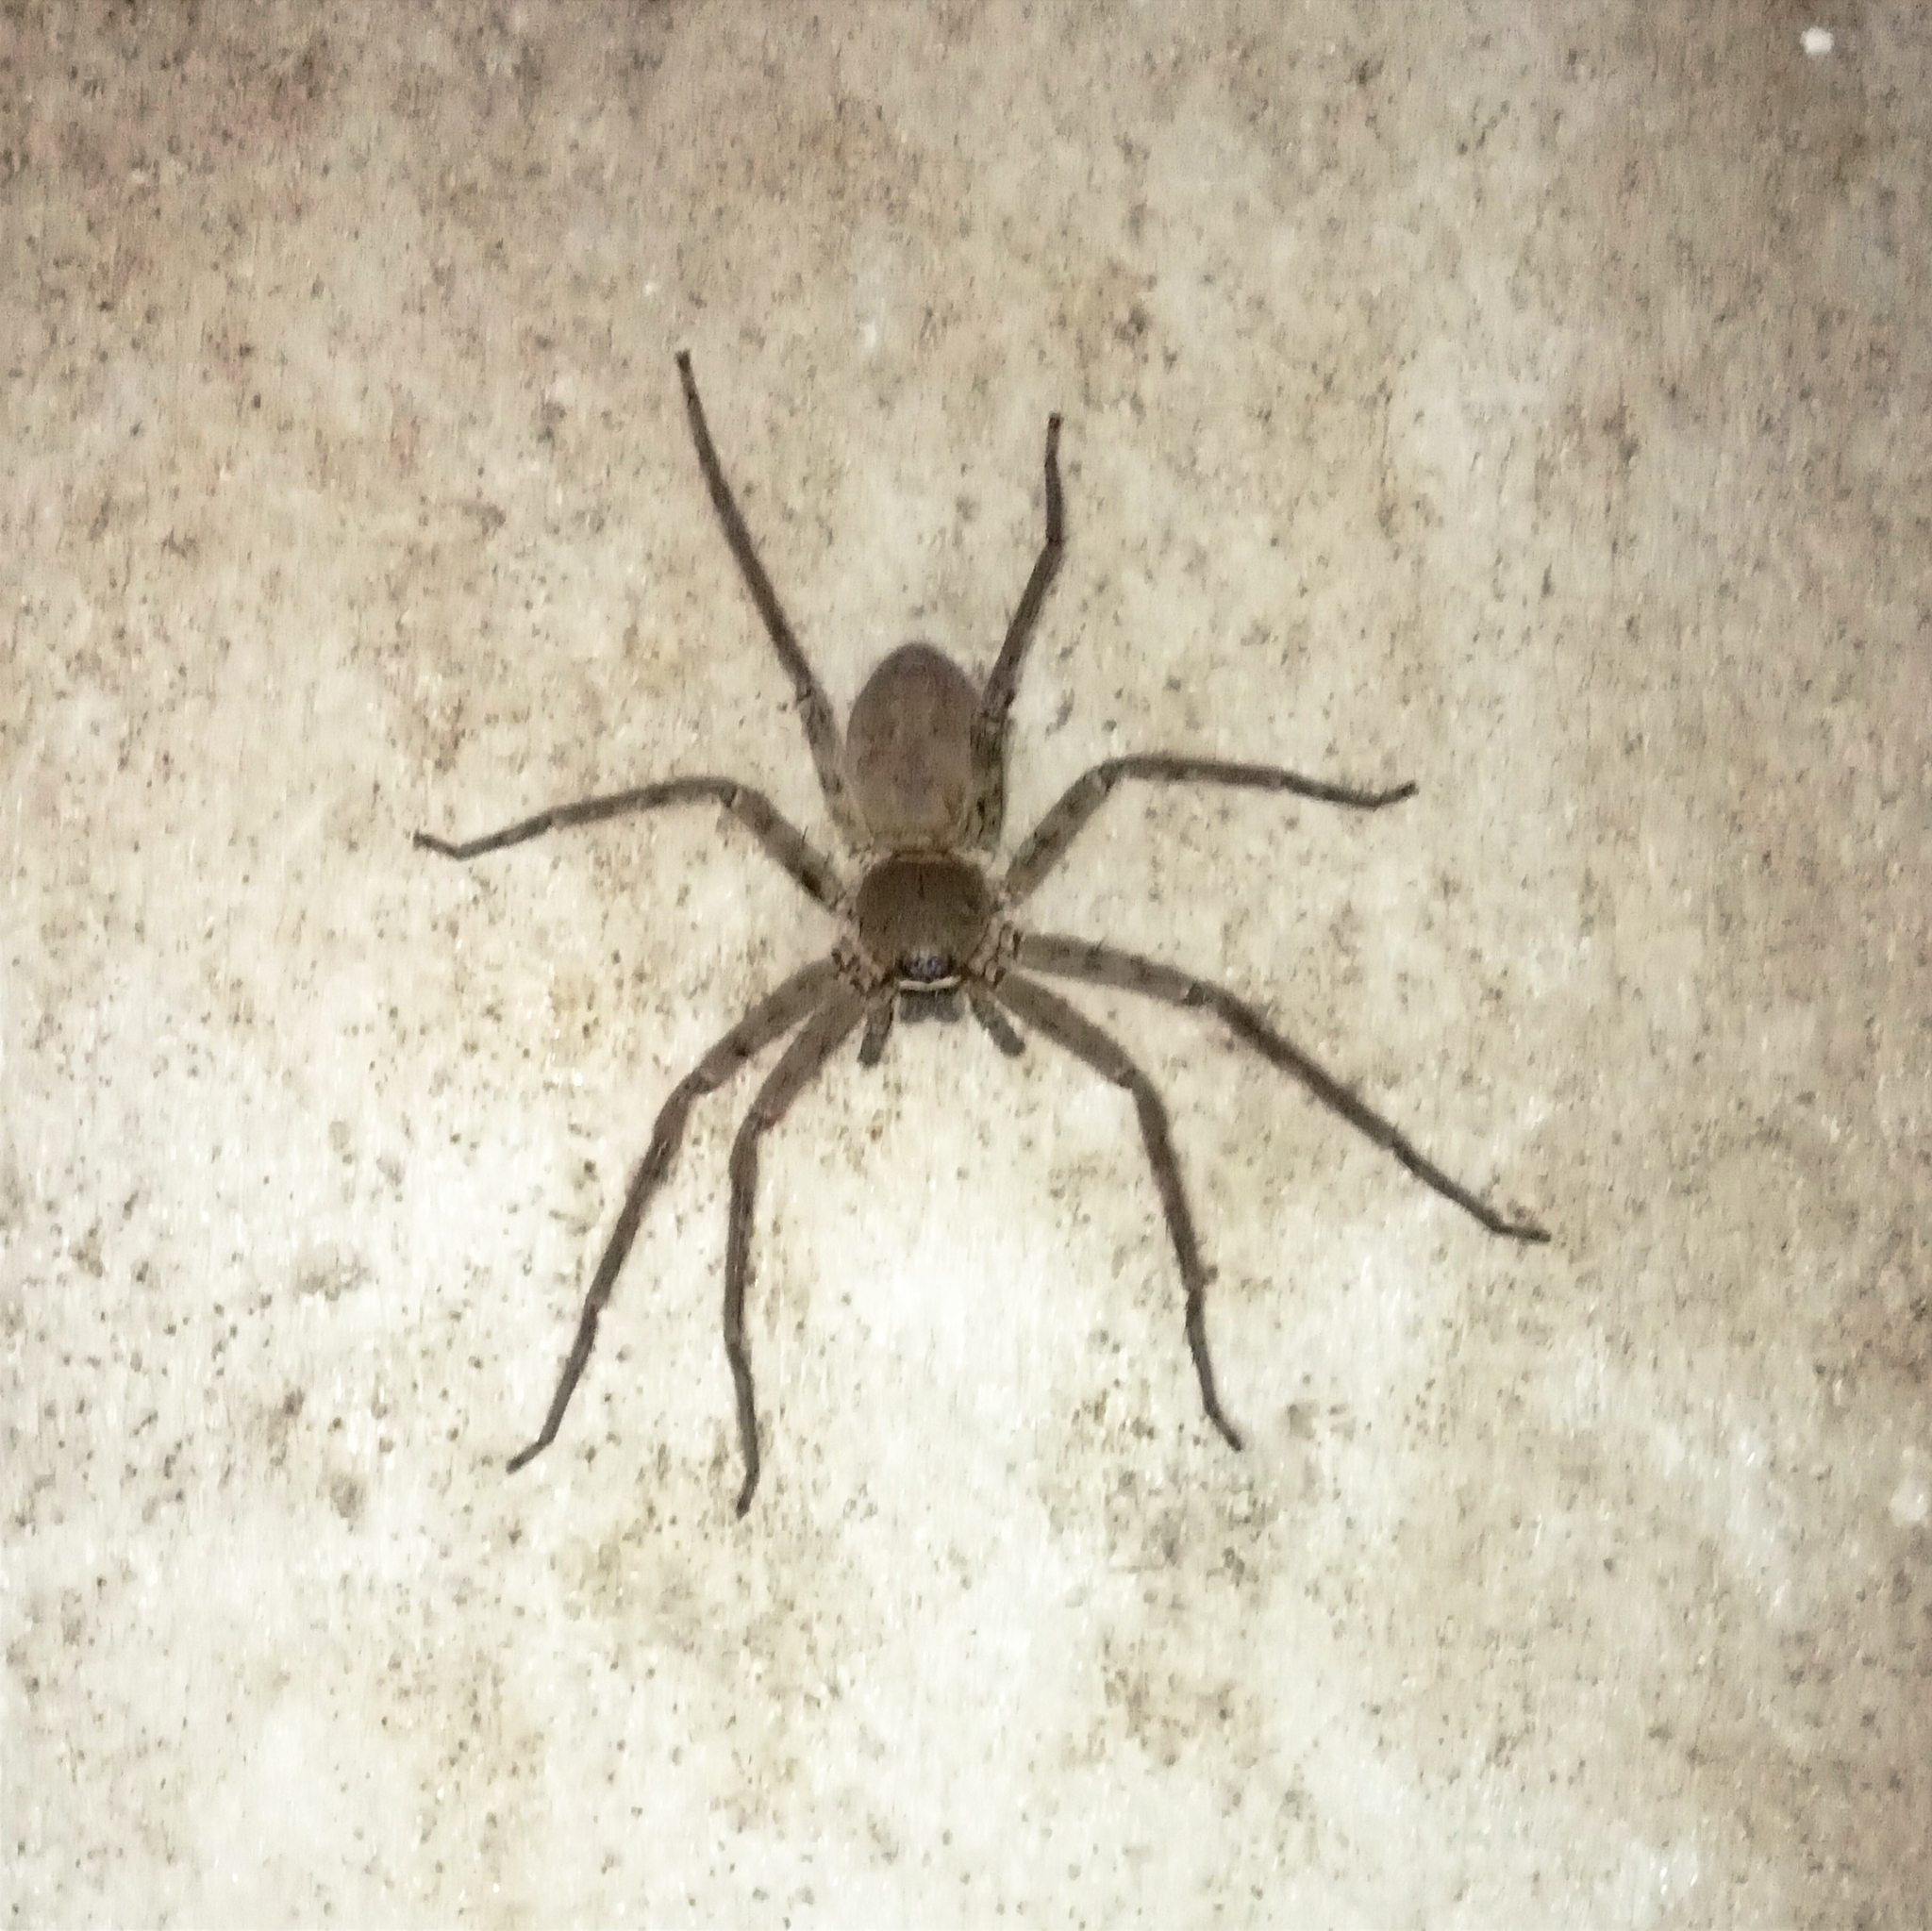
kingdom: Animalia
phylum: Arthropoda
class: Arachnida
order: Araneae
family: Sparassidae
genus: Heteropoda
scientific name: Heteropoda venatoria
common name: Huntsman spider
